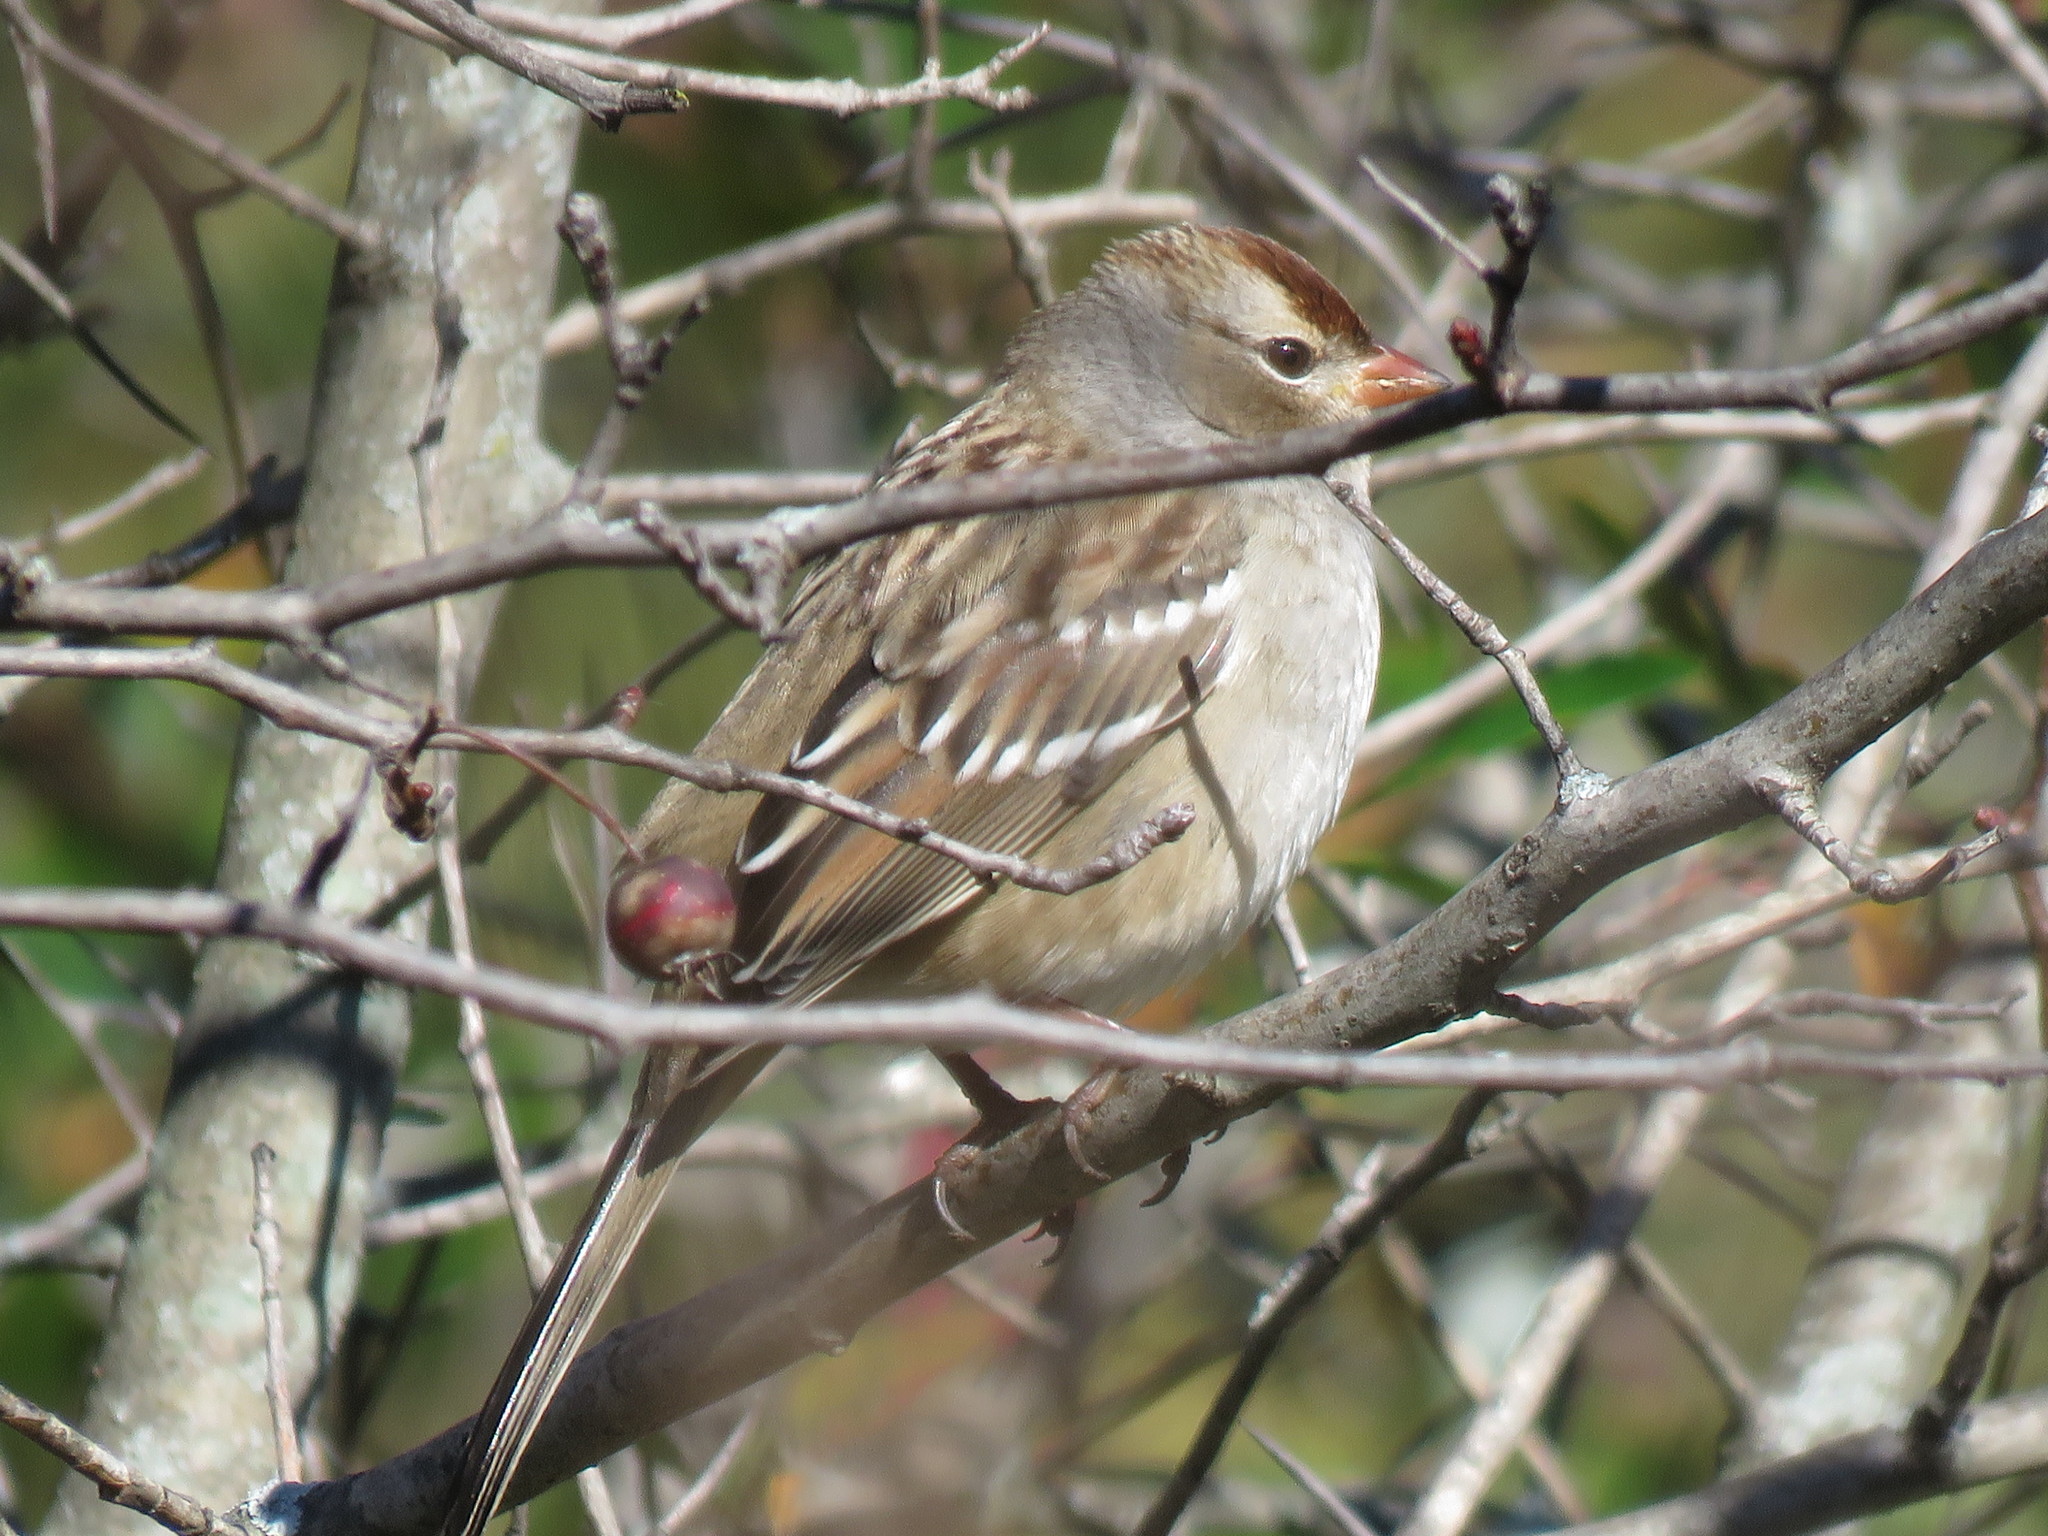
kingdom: Animalia
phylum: Chordata
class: Aves
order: Passeriformes
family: Passerellidae
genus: Zonotrichia
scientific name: Zonotrichia leucophrys
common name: White-crowned sparrow
